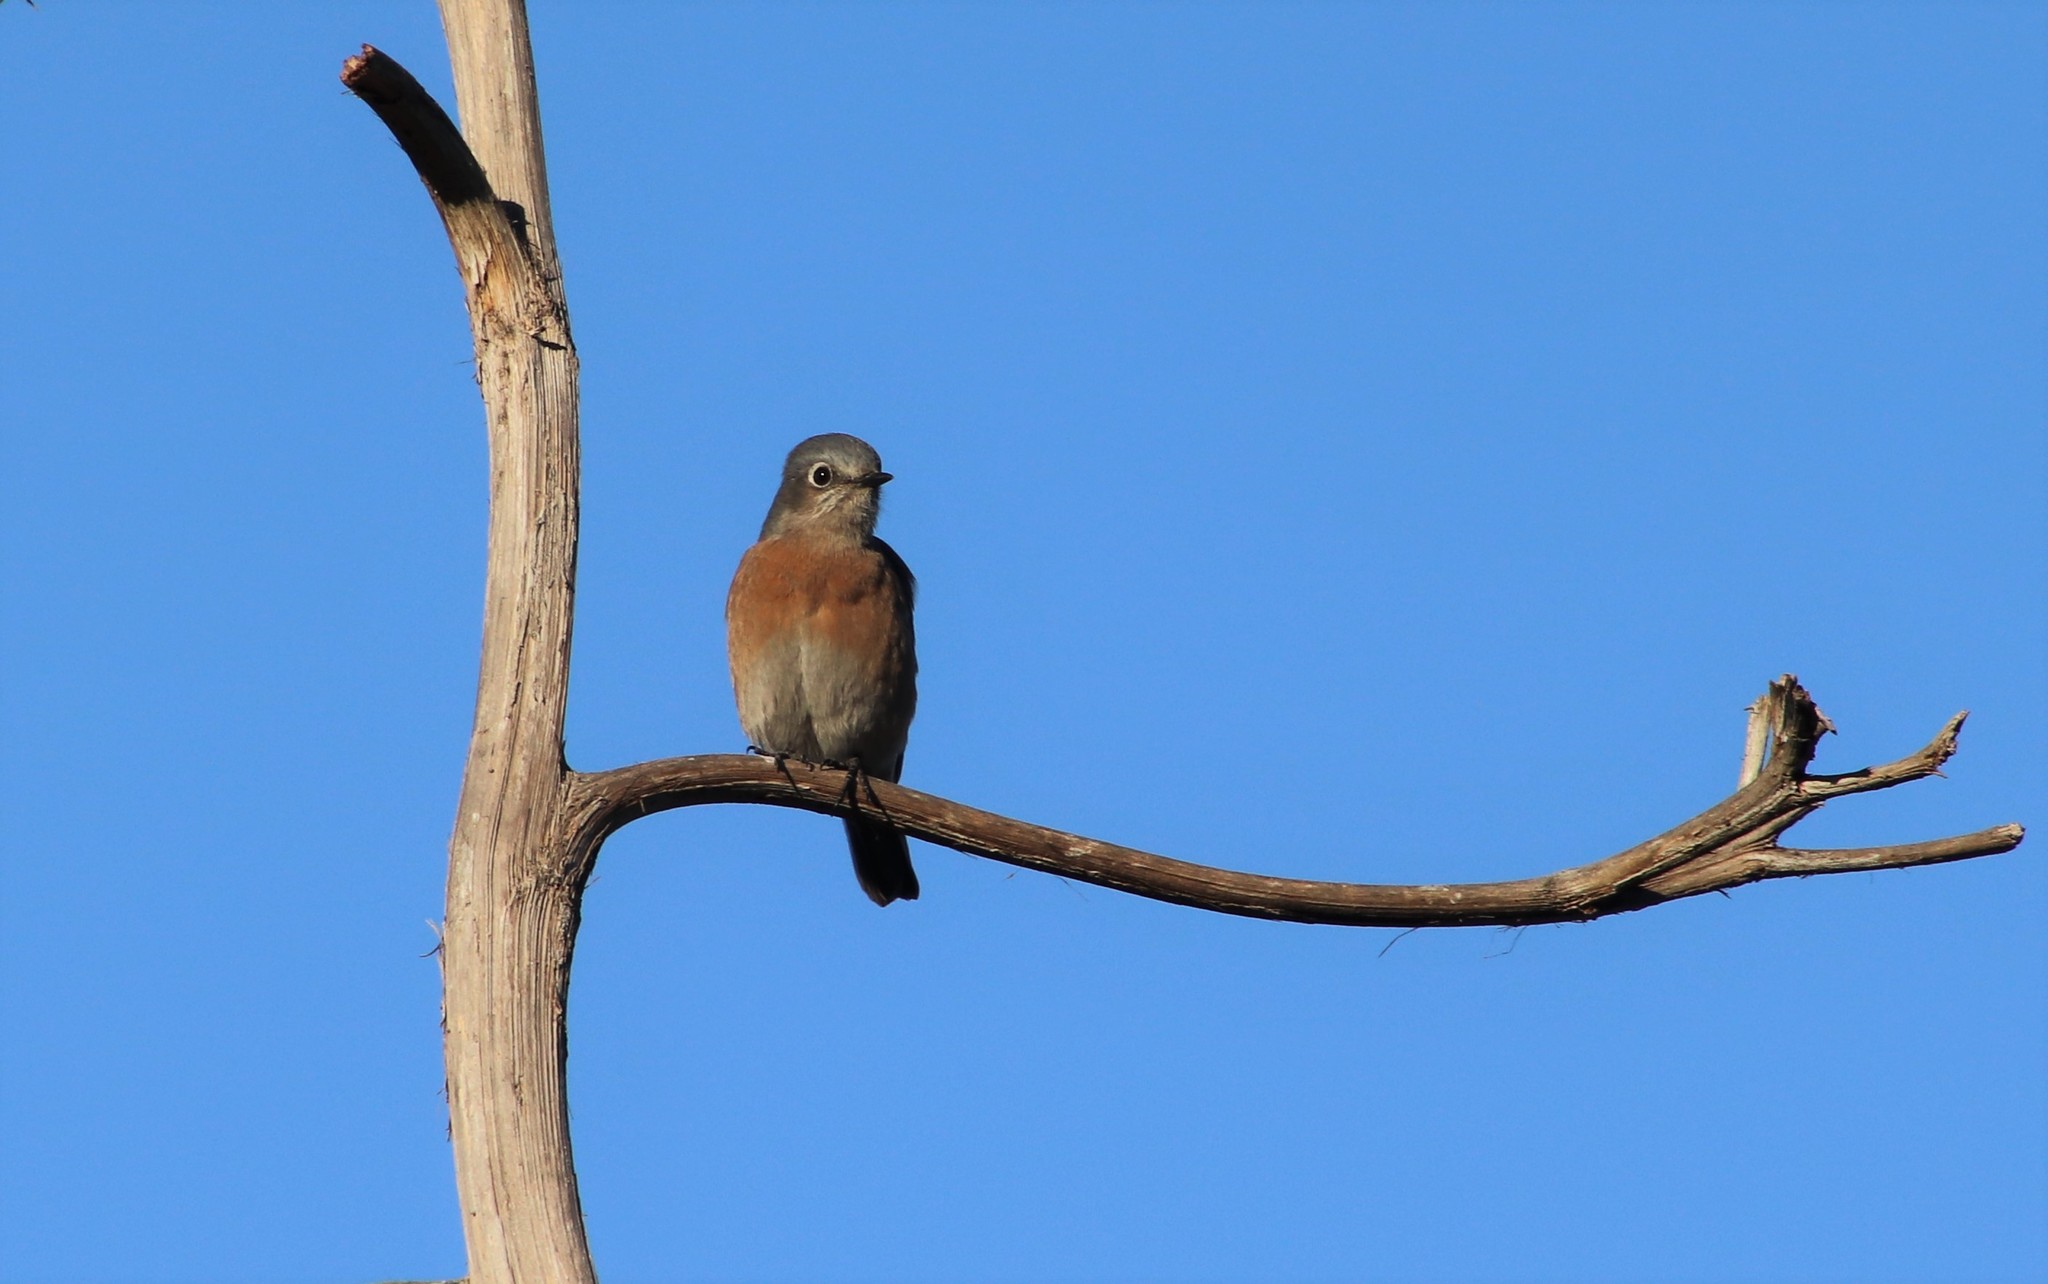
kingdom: Animalia
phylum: Chordata
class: Aves
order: Passeriformes
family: Turdidae
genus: Sialia
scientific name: Sialia mexicana
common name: Western bluebird
